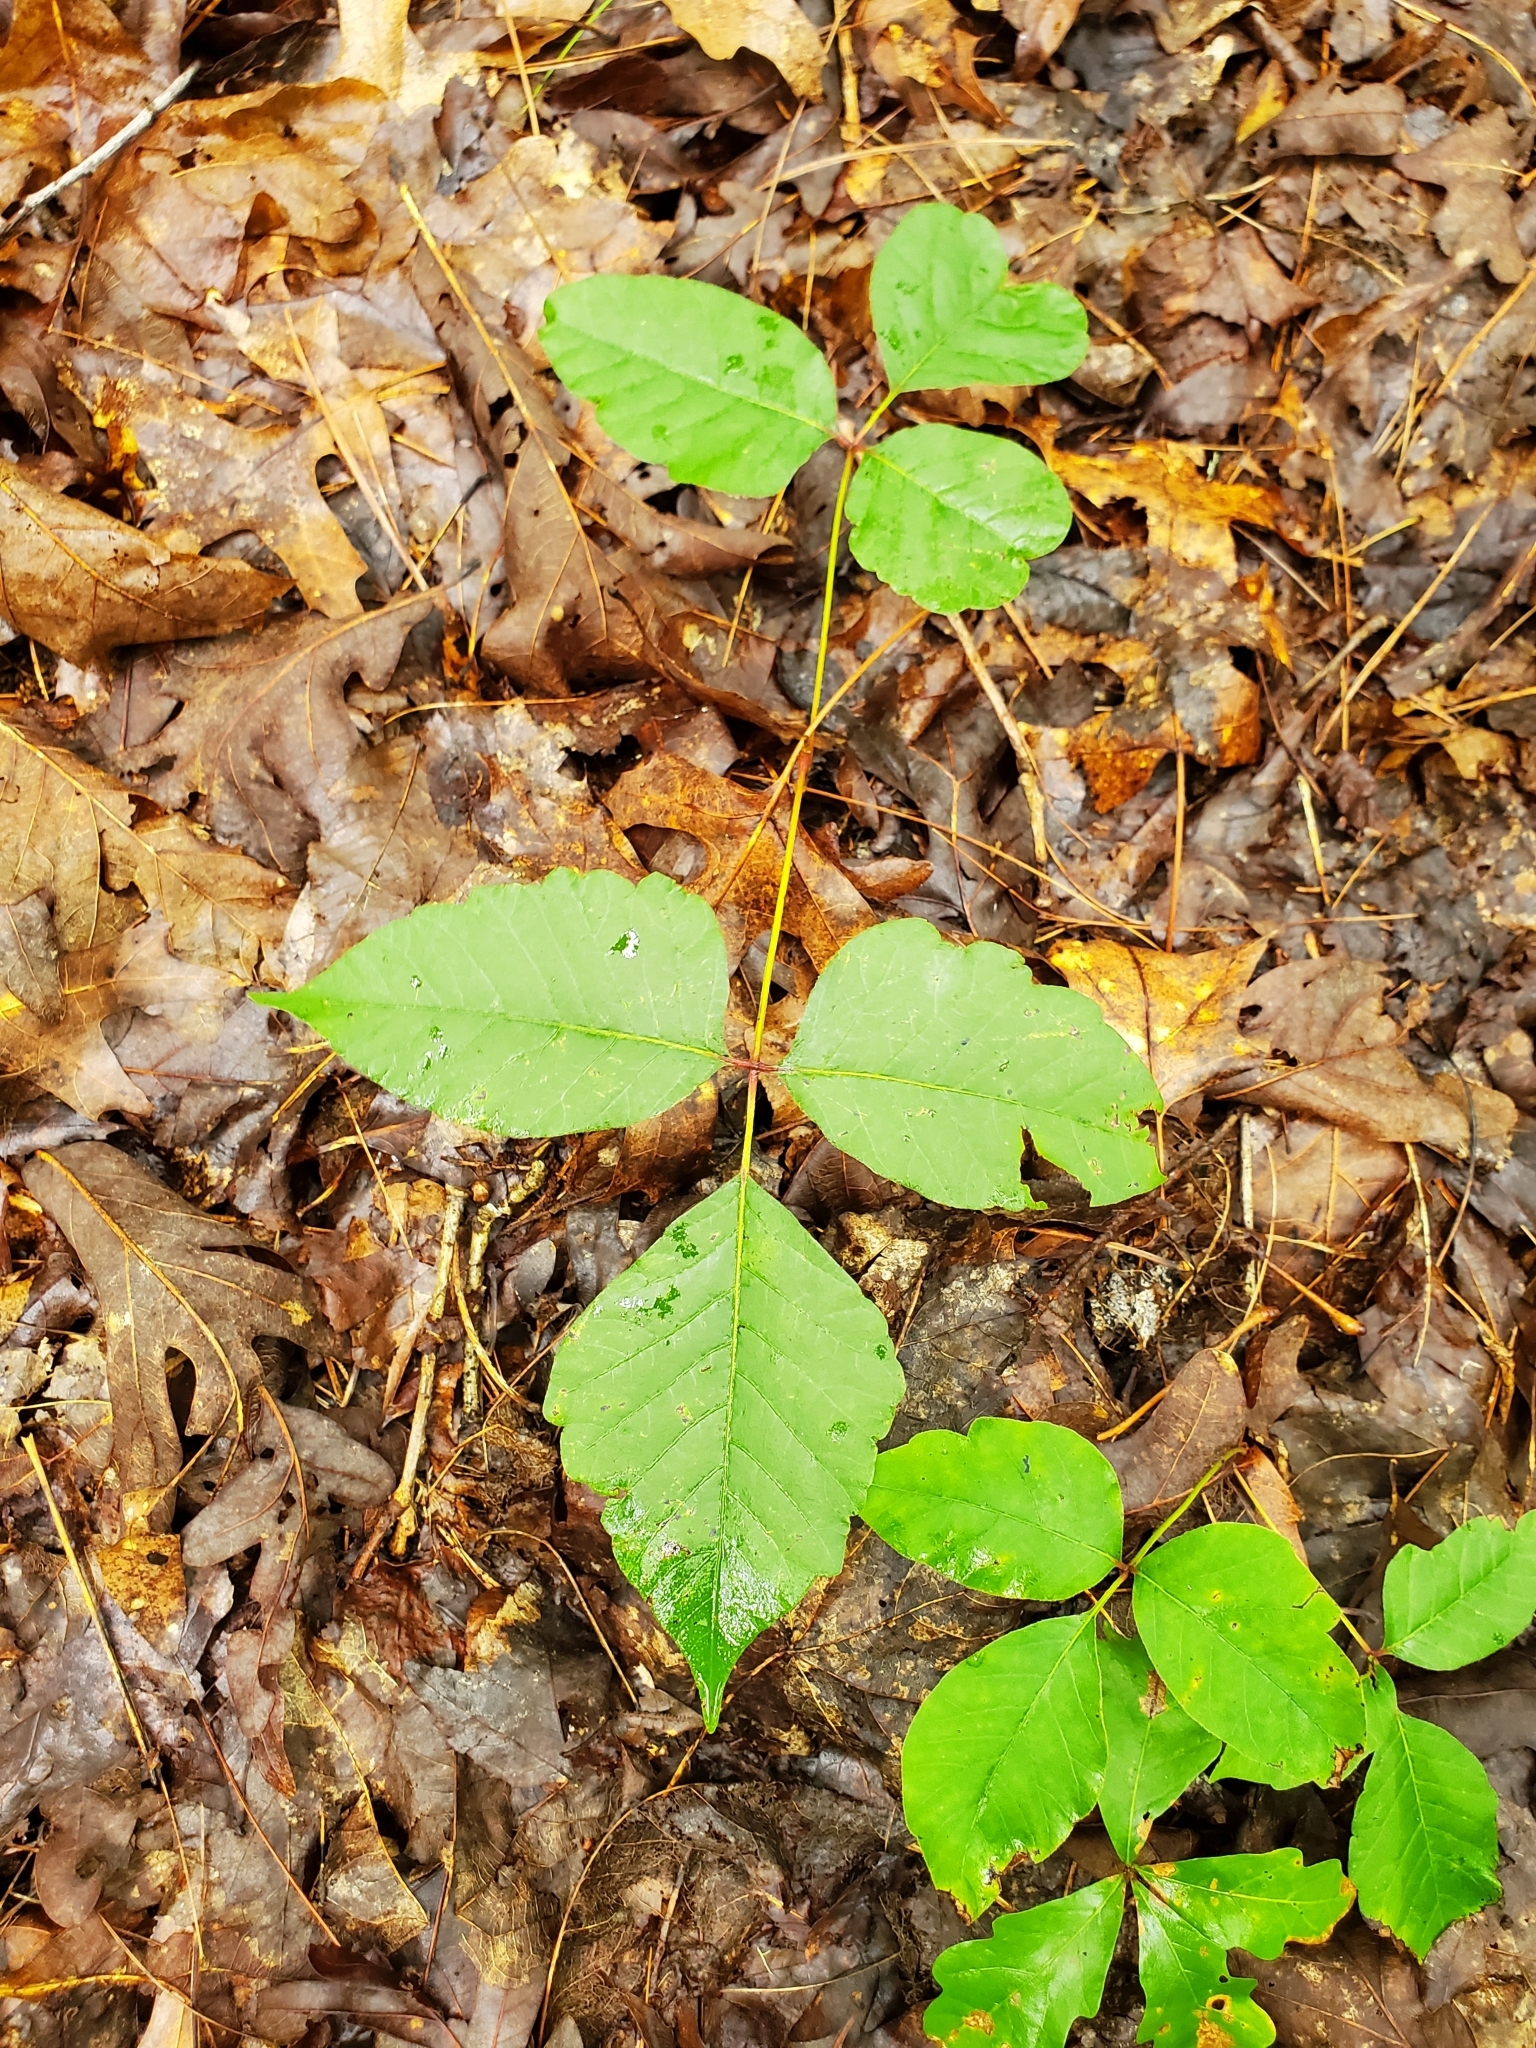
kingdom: Plantae
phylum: Tracheophyta
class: Magnoliopsida
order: Sapindales
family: Anacardiaceae
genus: Toxicodendron
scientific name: Toxicodendron radicans
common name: Poison ivy
